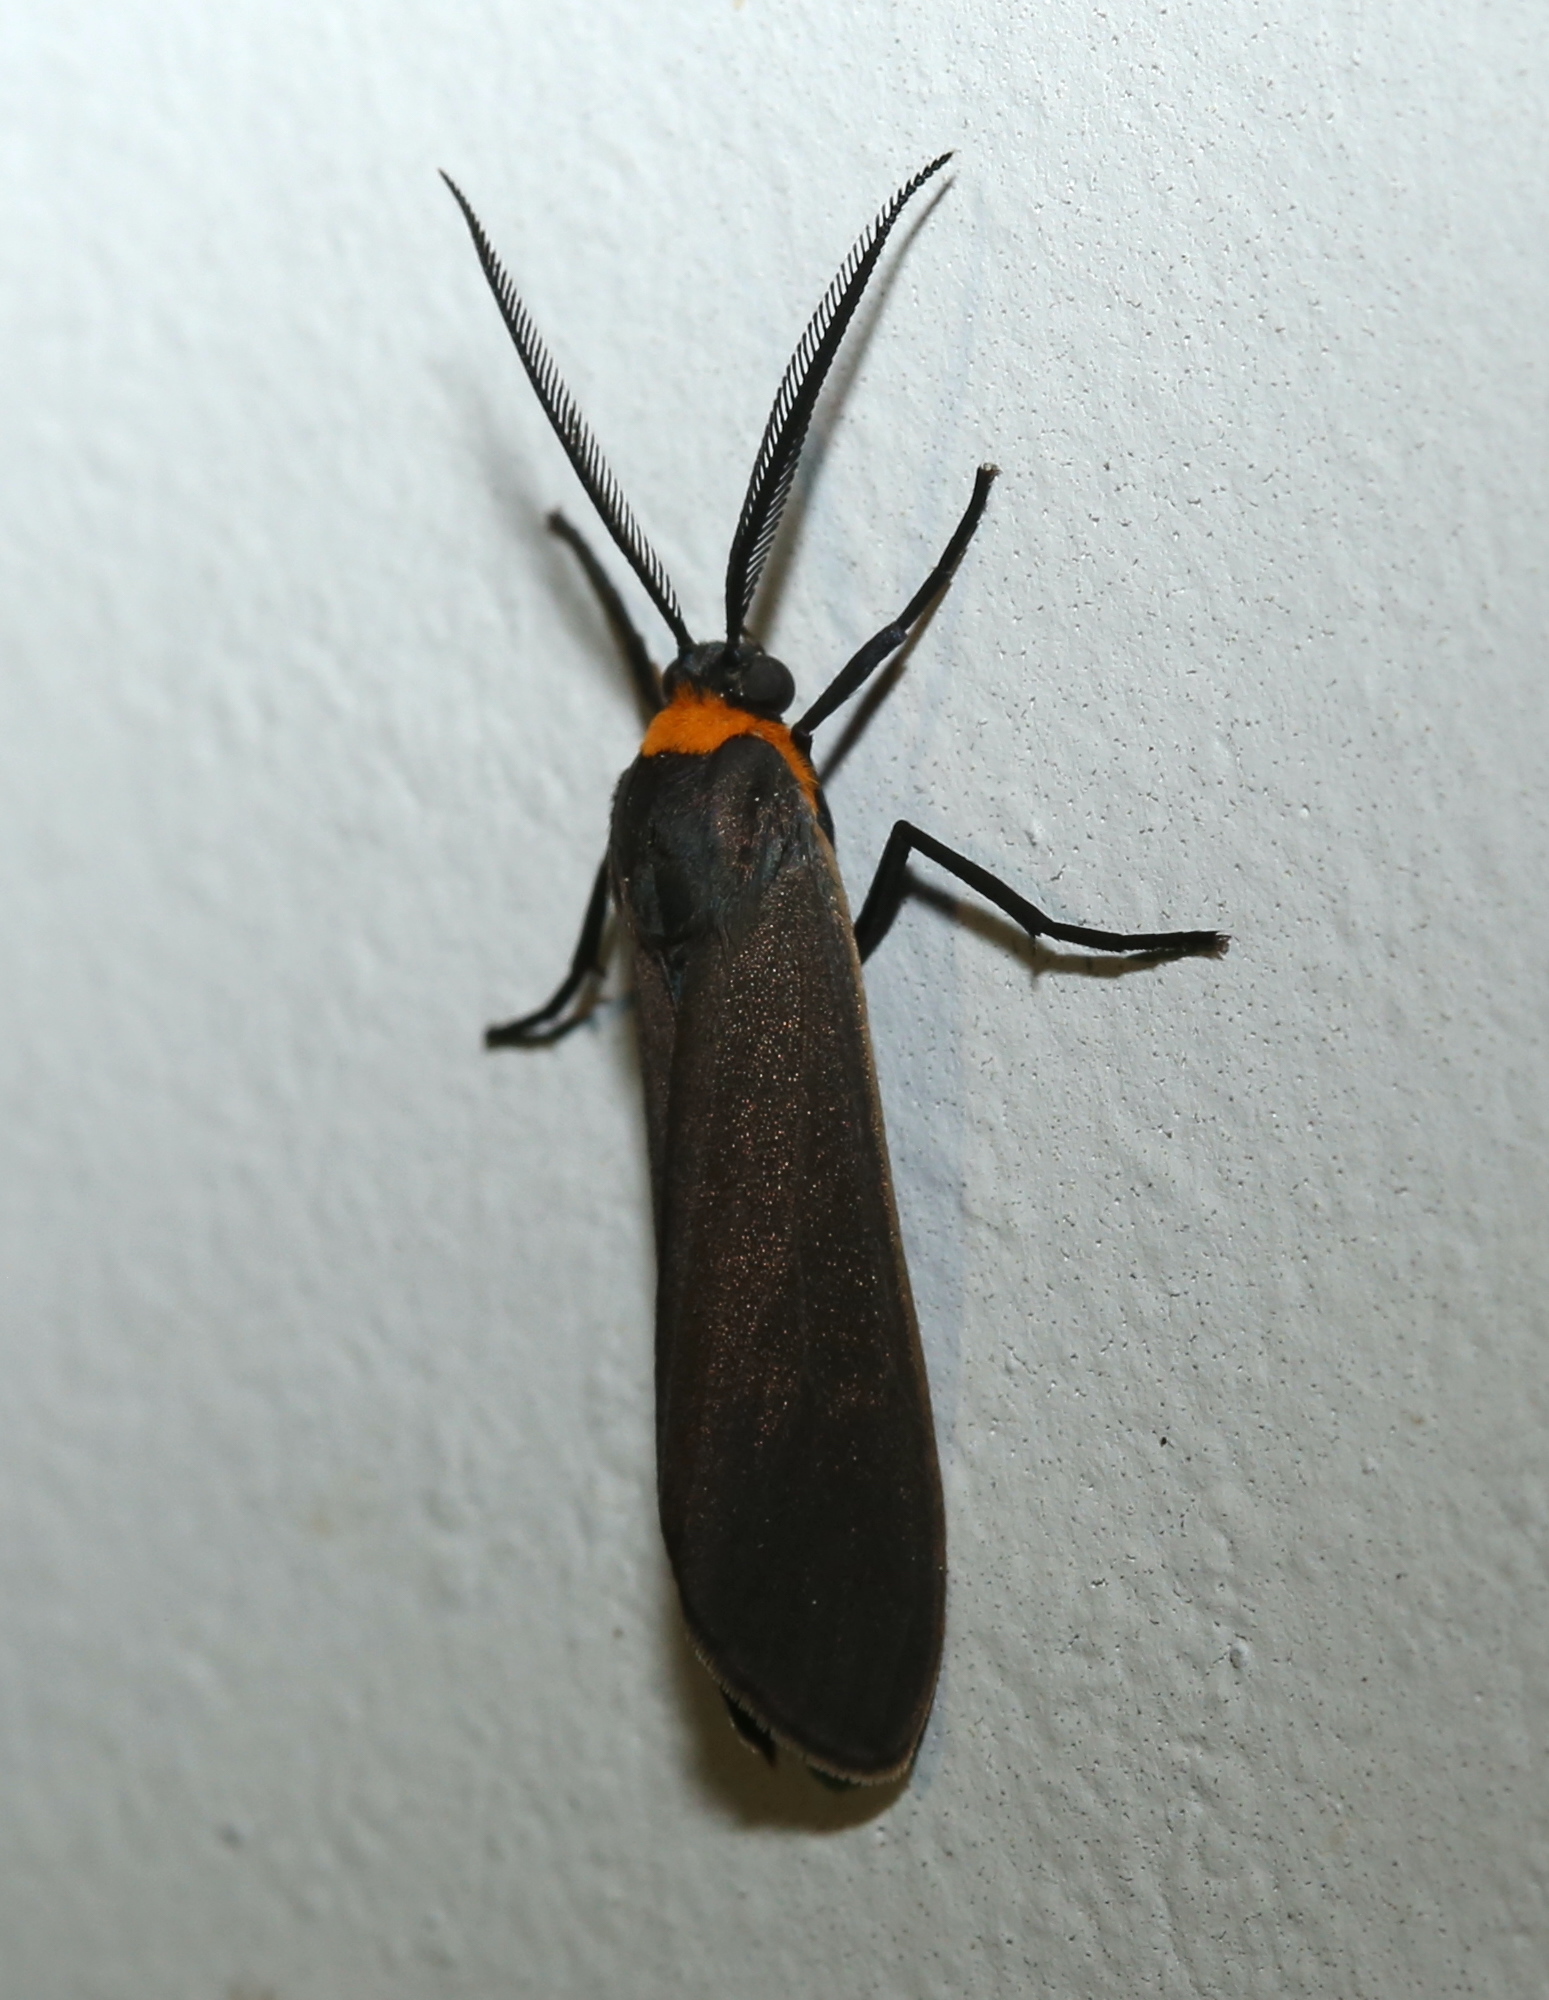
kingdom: Animalia
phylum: Arthropoda
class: Insecta
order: Lepidoptera
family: Erebidae
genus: Cisseps
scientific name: Cisseps fulvicollis
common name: Yellow-collared scape moth
